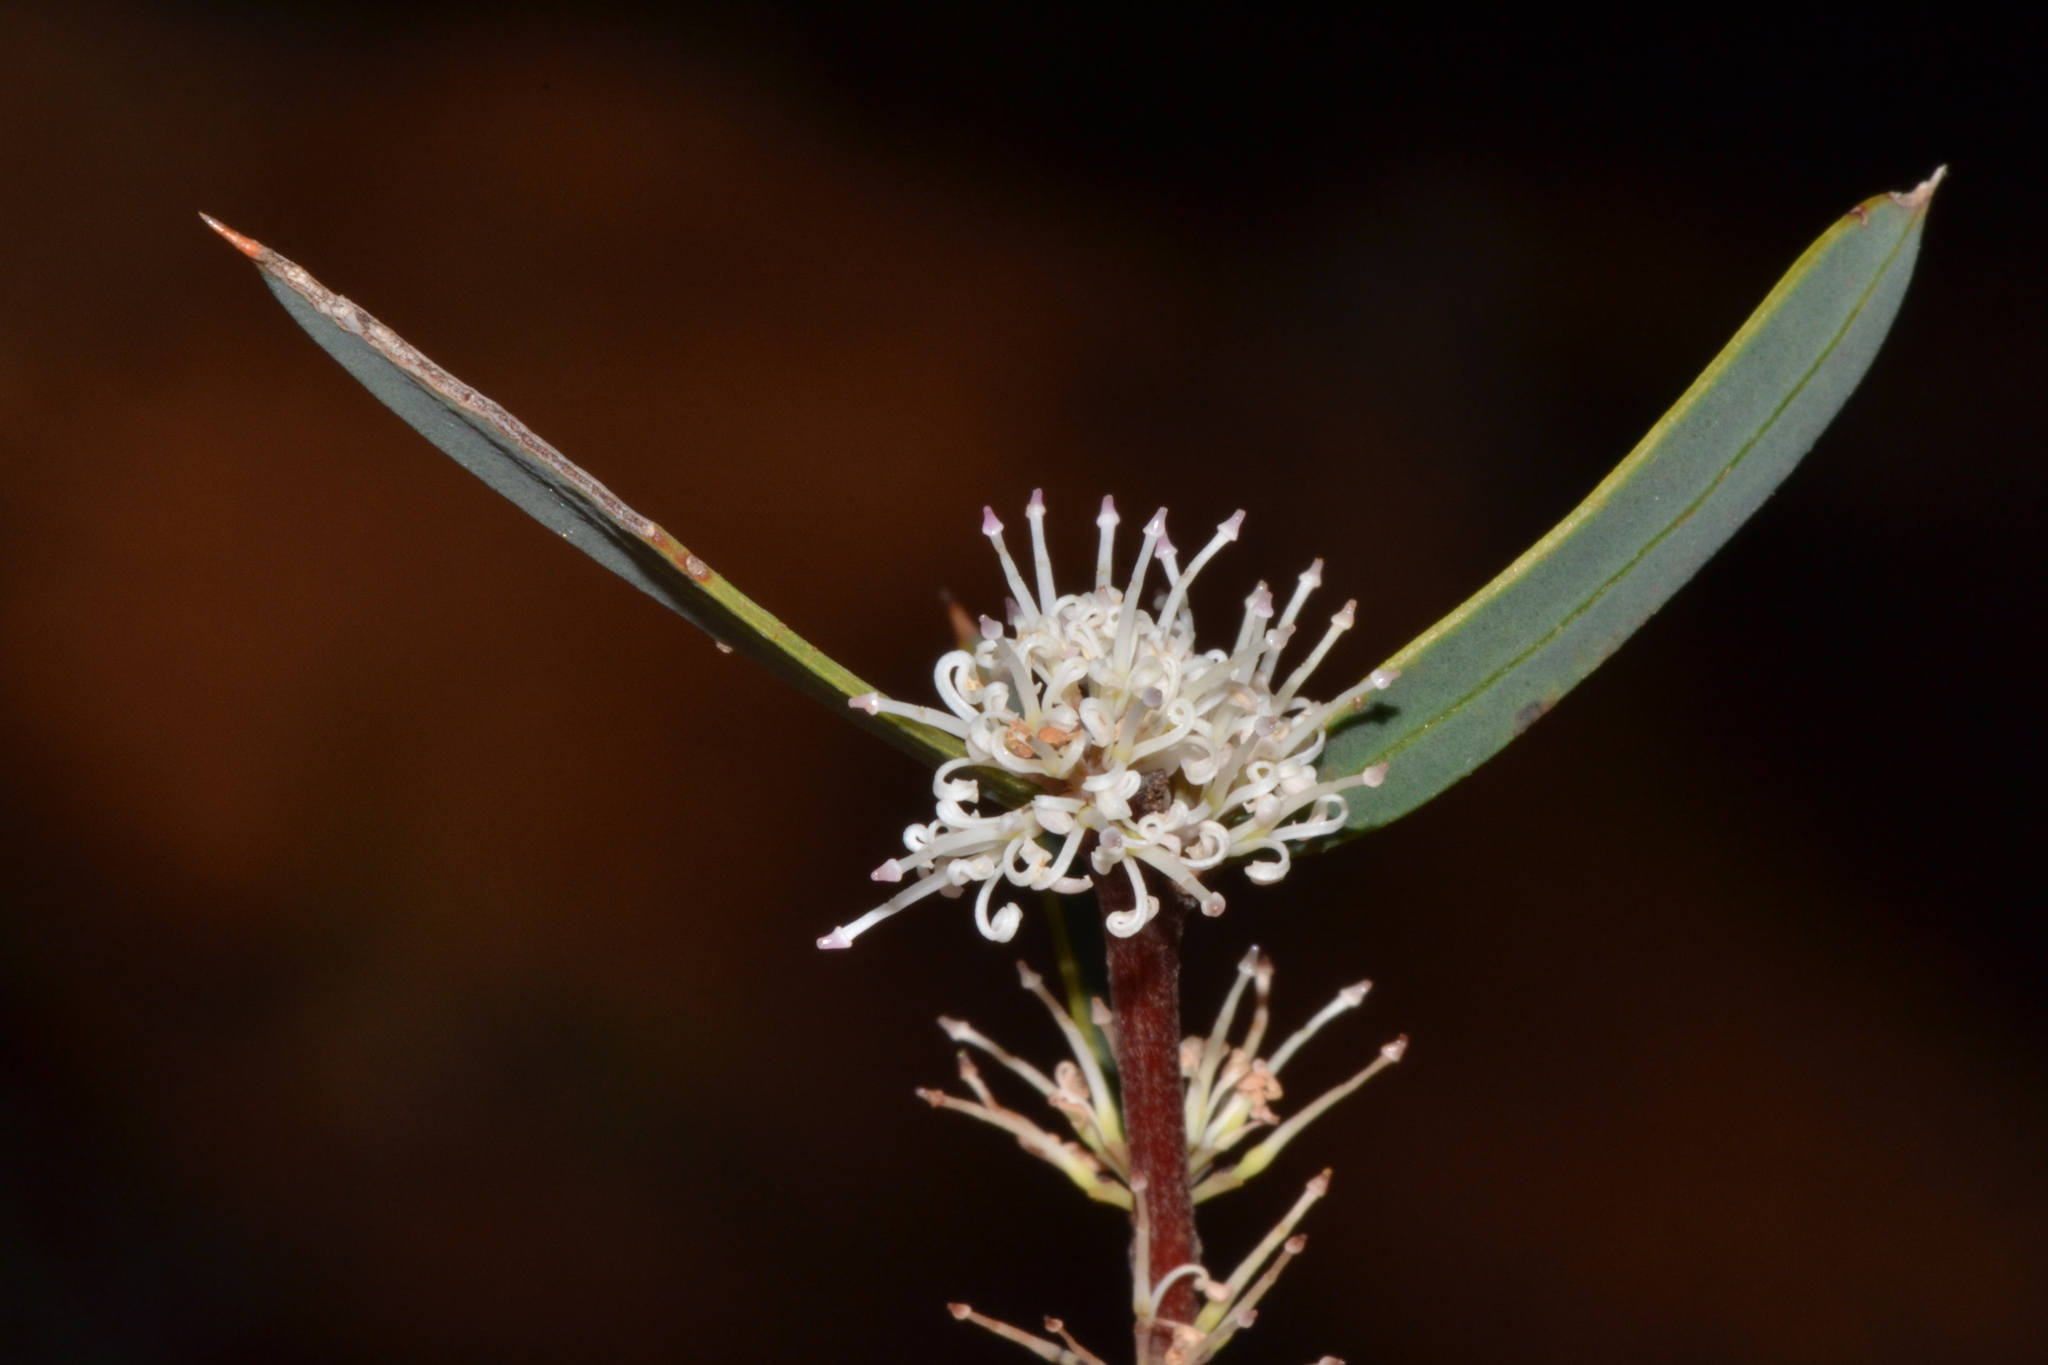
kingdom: Plantae
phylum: Tracheophyta
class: Magnoliopsida
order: Proteales
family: Proteaceae
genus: Hakea
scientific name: Hakea marginata
